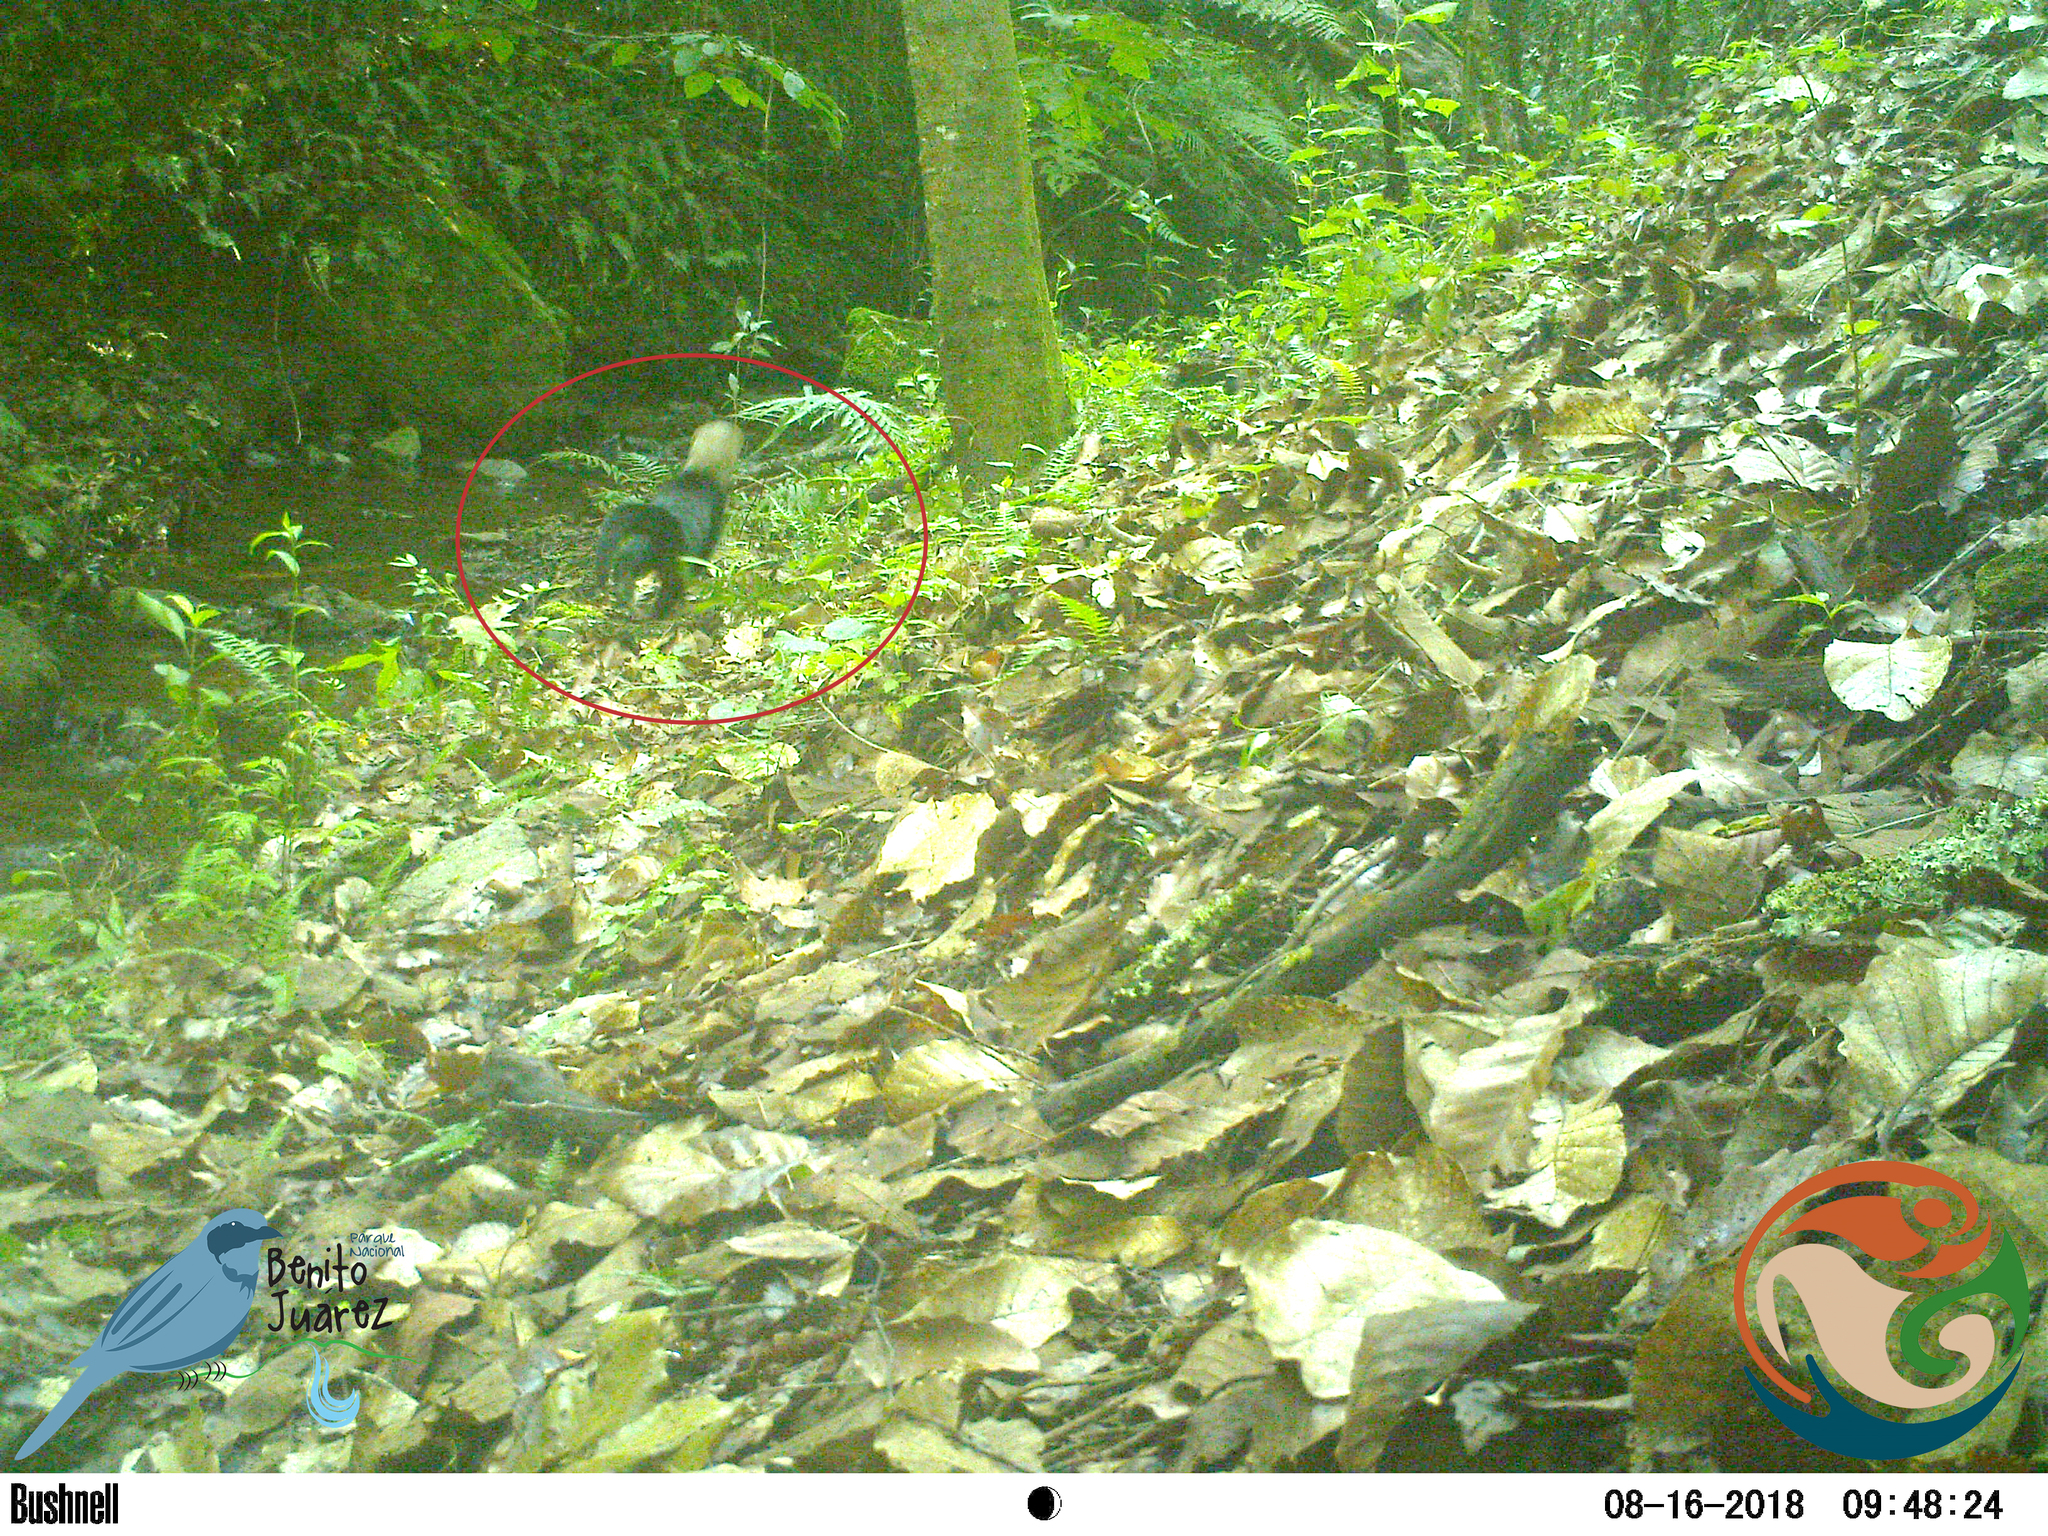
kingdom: Animalia
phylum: Chordata
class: Mammalia
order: Carnivora
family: Mustelidae
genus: Eira
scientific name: Eira barbara
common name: Tayra
